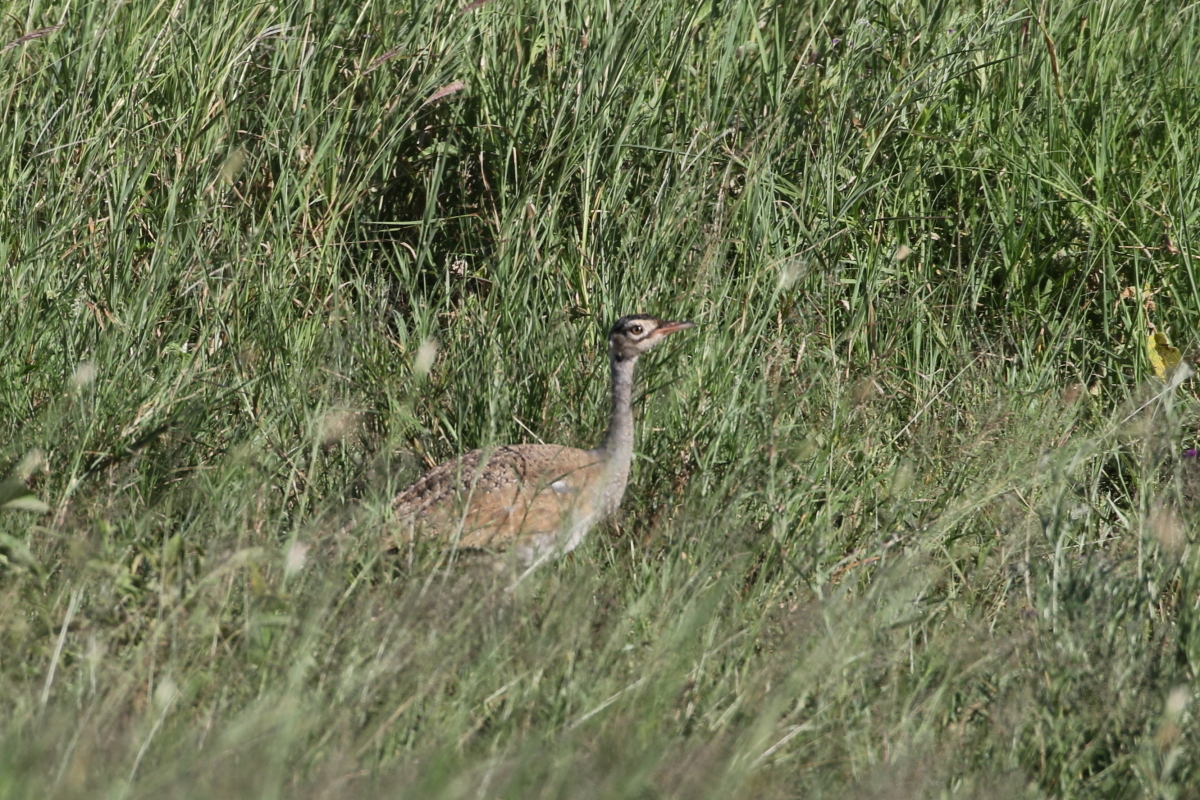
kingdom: Animalia
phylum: Chordata
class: Aves
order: Otidiformes
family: Otididae
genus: Eupodotis
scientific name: Eupodotis senegalensis
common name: White-bellied bustard
